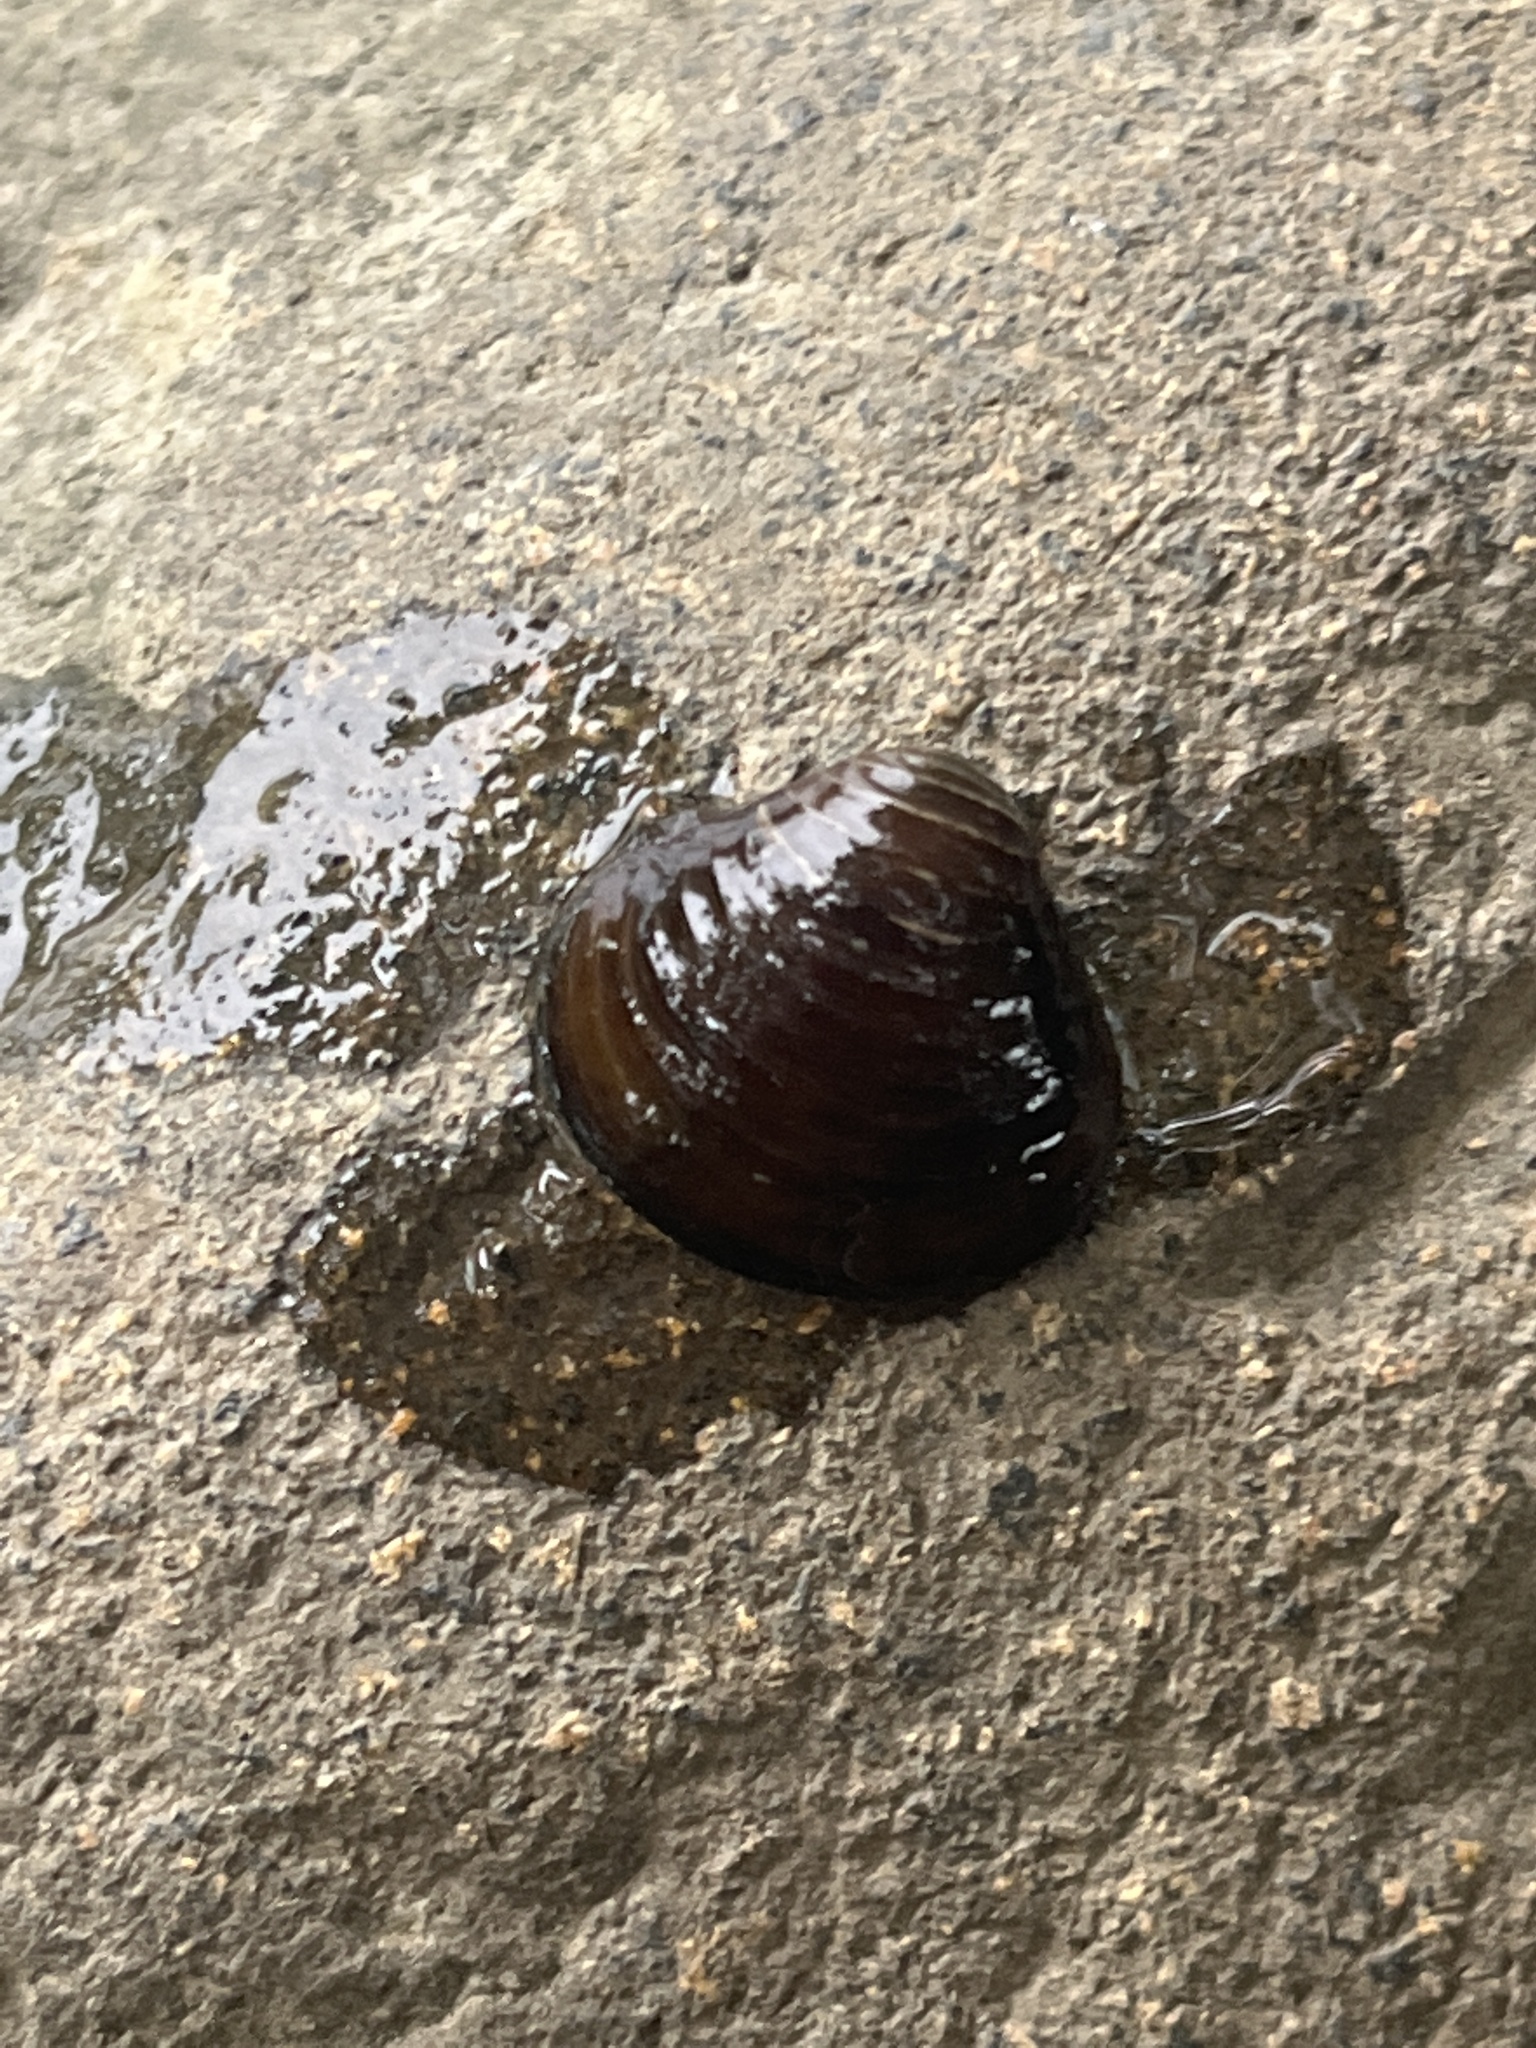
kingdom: Animalia
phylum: Mollusca
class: Bivalvia
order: Venerida
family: Cyrenidae
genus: Corbicula
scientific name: Corbicula fluminea
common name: Asian clam
